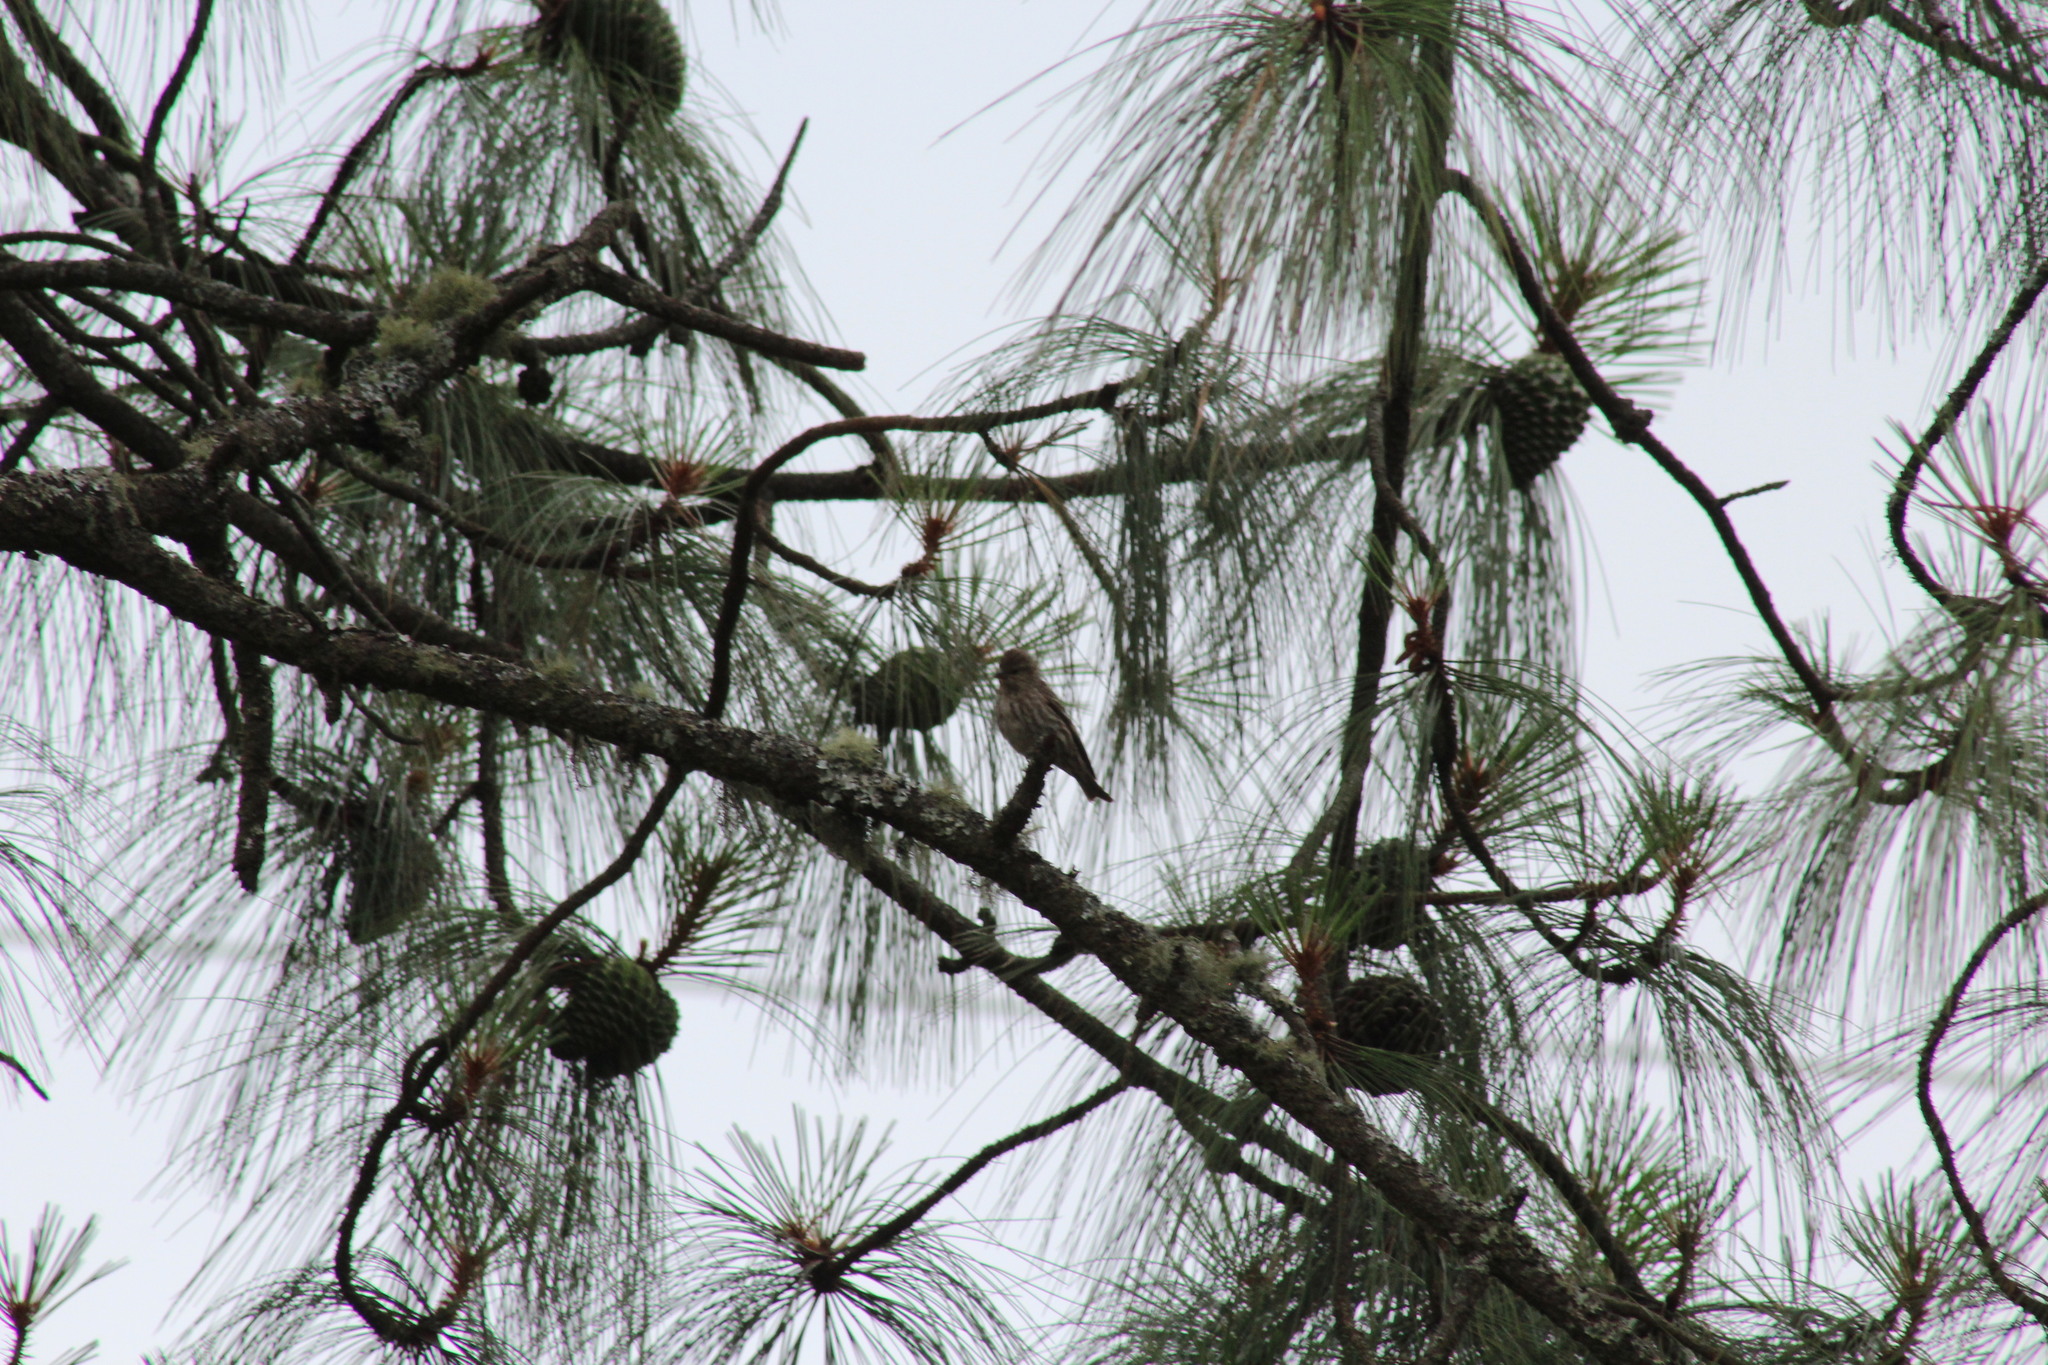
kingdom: Animalia
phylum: Chordata
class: Aves
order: Passeriformes
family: Fringillidae
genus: Spinus
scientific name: Spinus pinus
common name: Pine siskin
